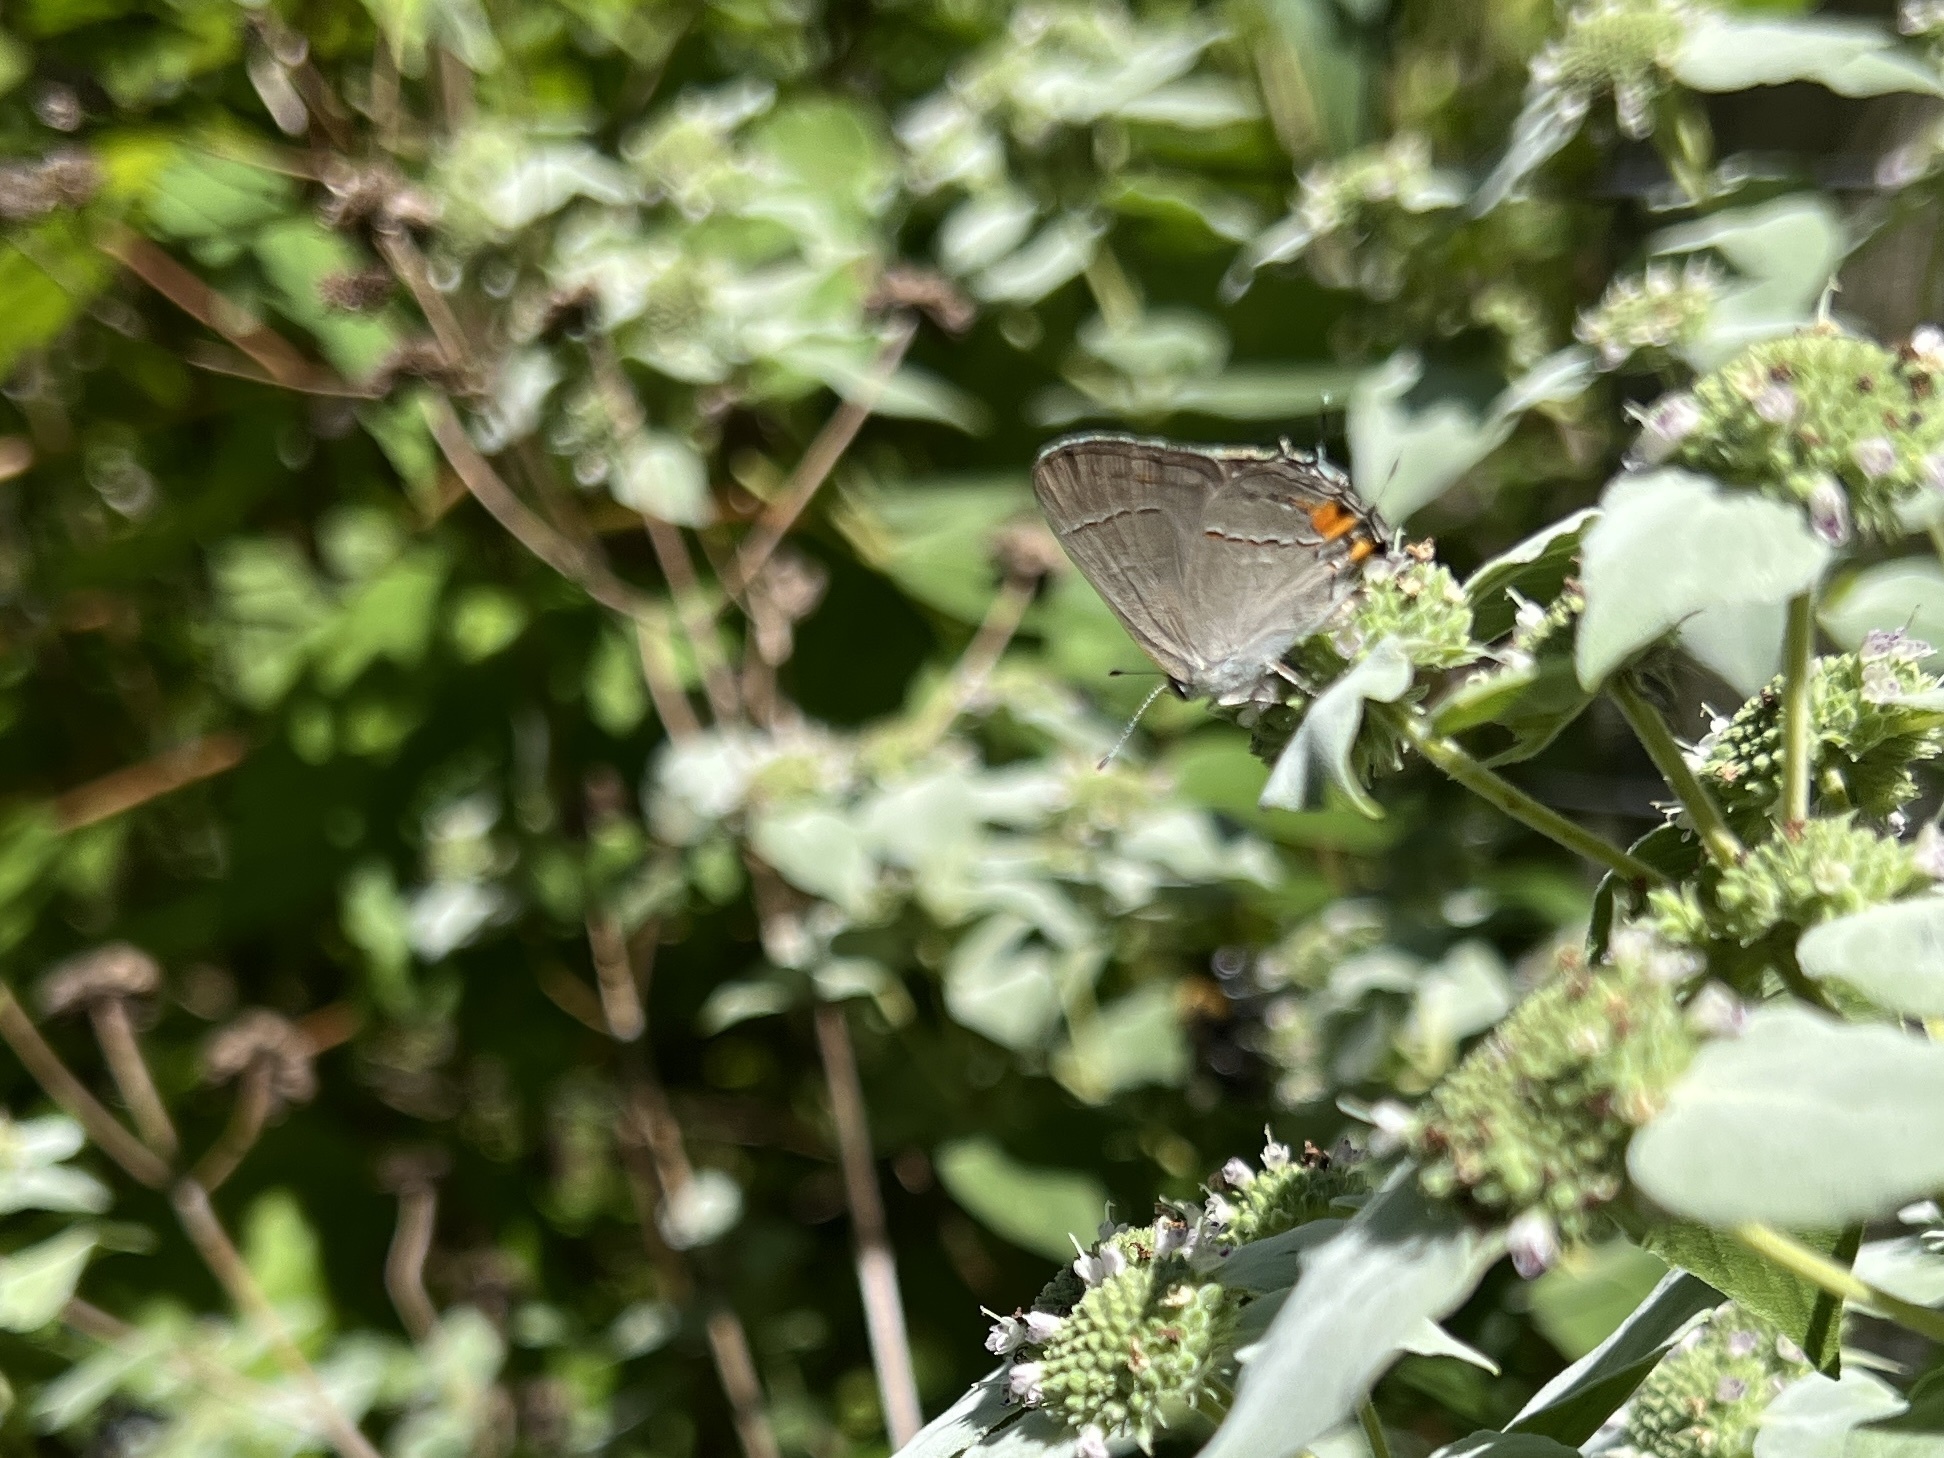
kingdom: Animalia
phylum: Arthropoda
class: Insecta
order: Lepidoptera
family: Lycaenidae
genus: Strymon
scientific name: Strymon melinus
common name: Gray hairstreak
